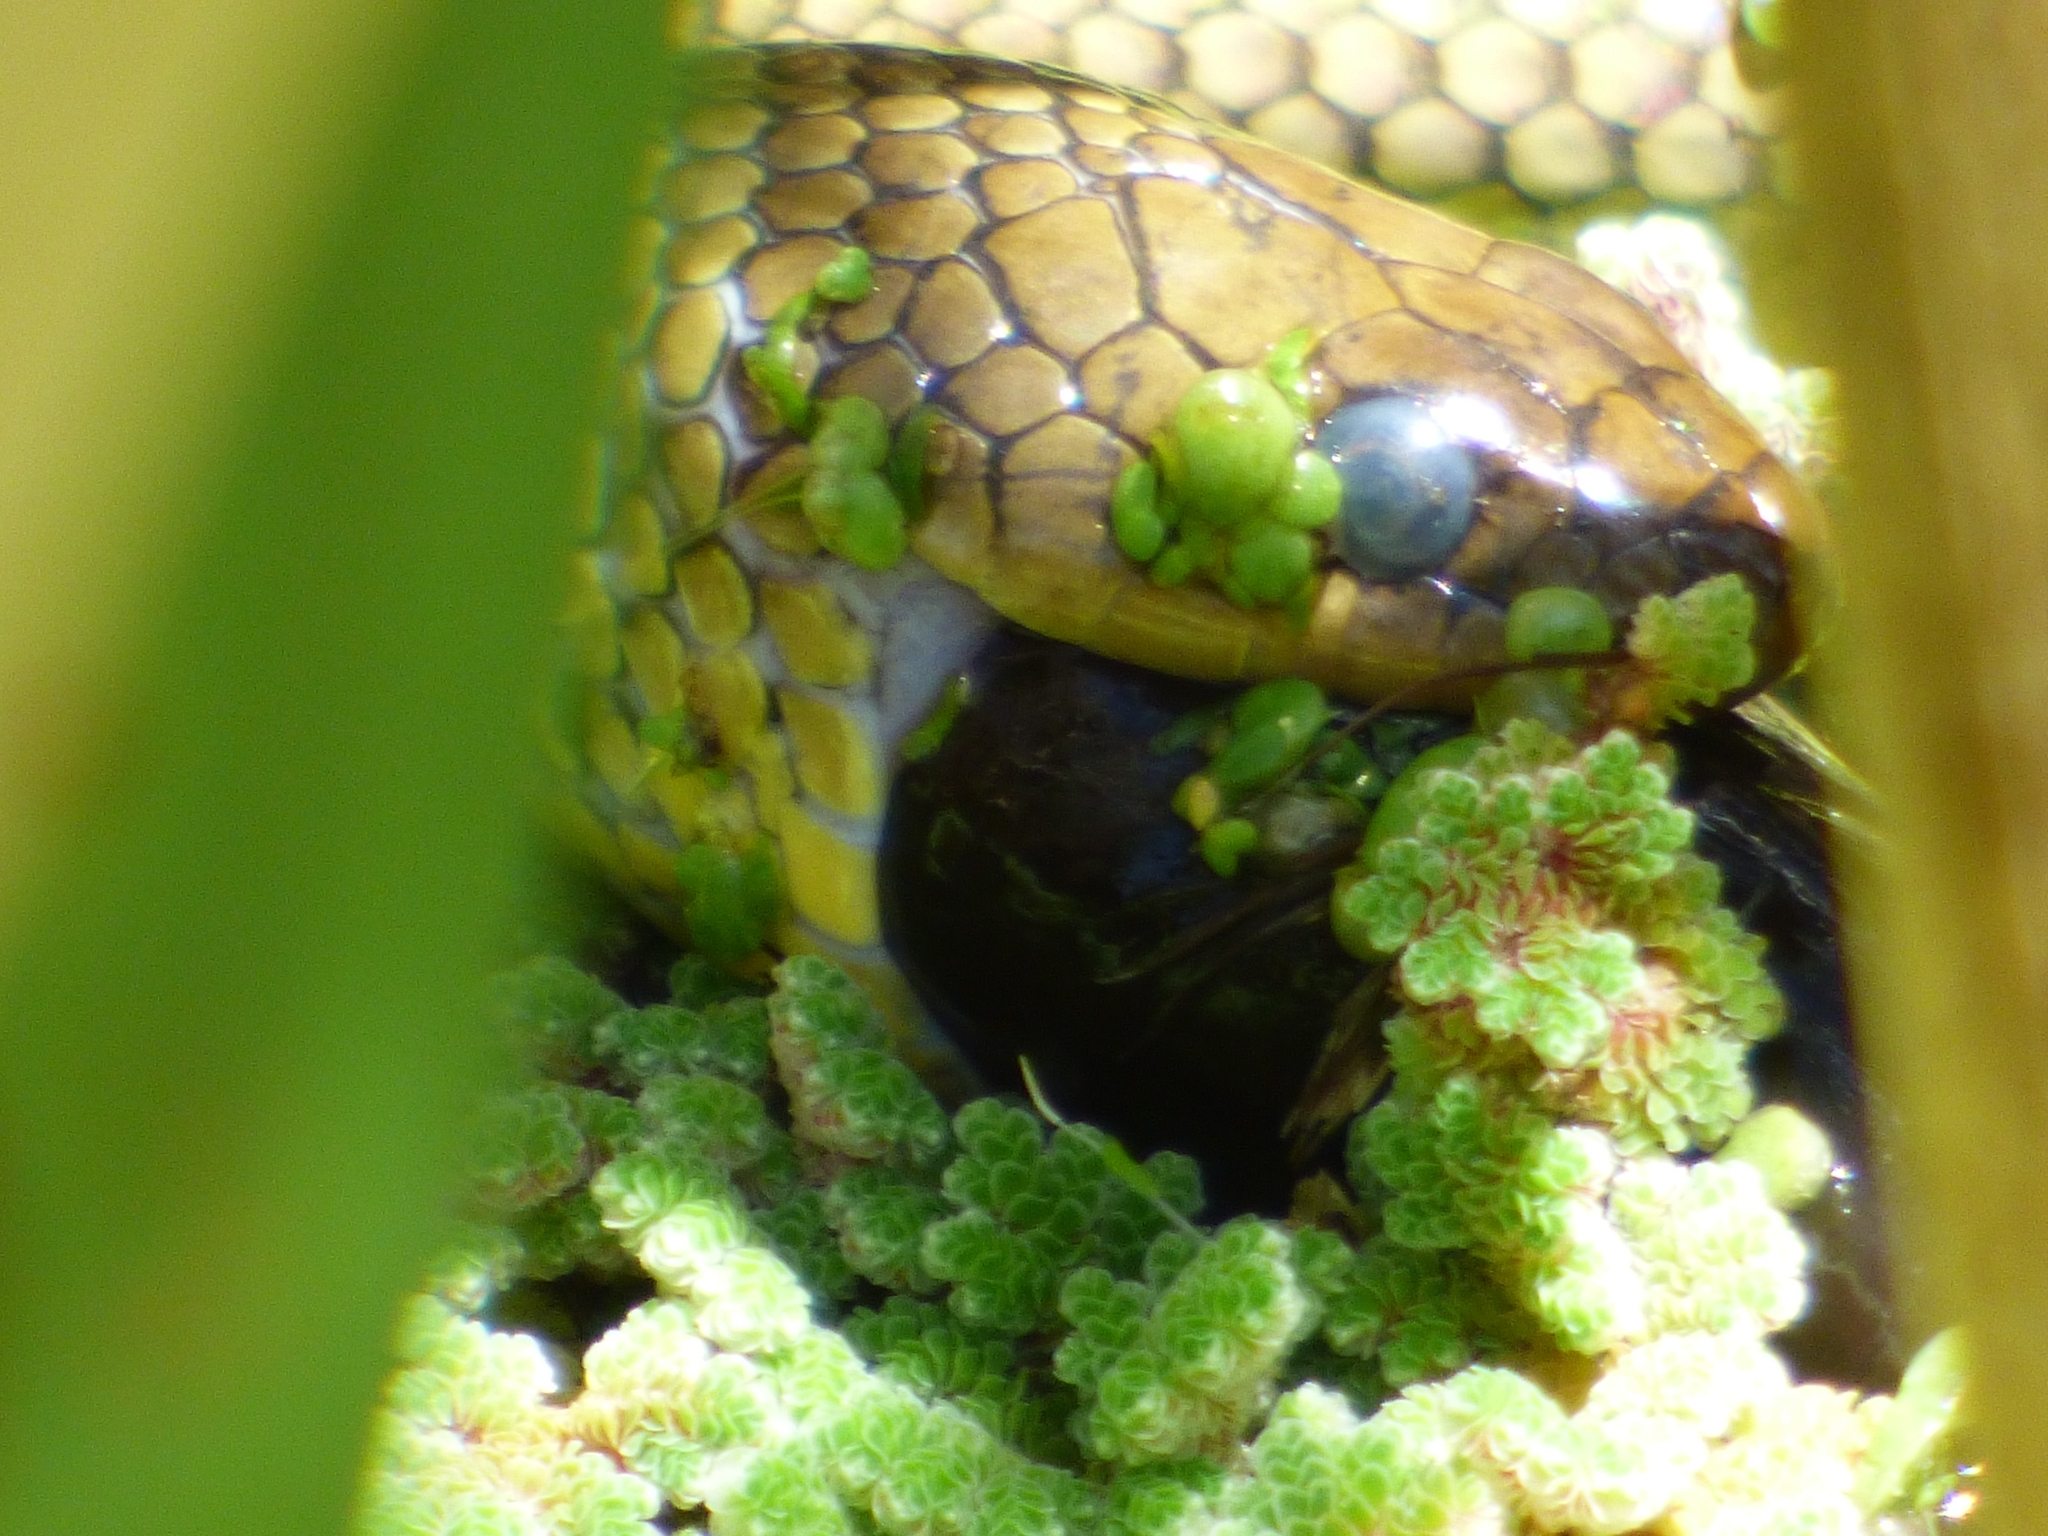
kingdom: Animalia
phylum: Chordata
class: Squamata
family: Colubridae
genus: Erythrolamprus
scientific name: Erythrolamprus semiaureus
